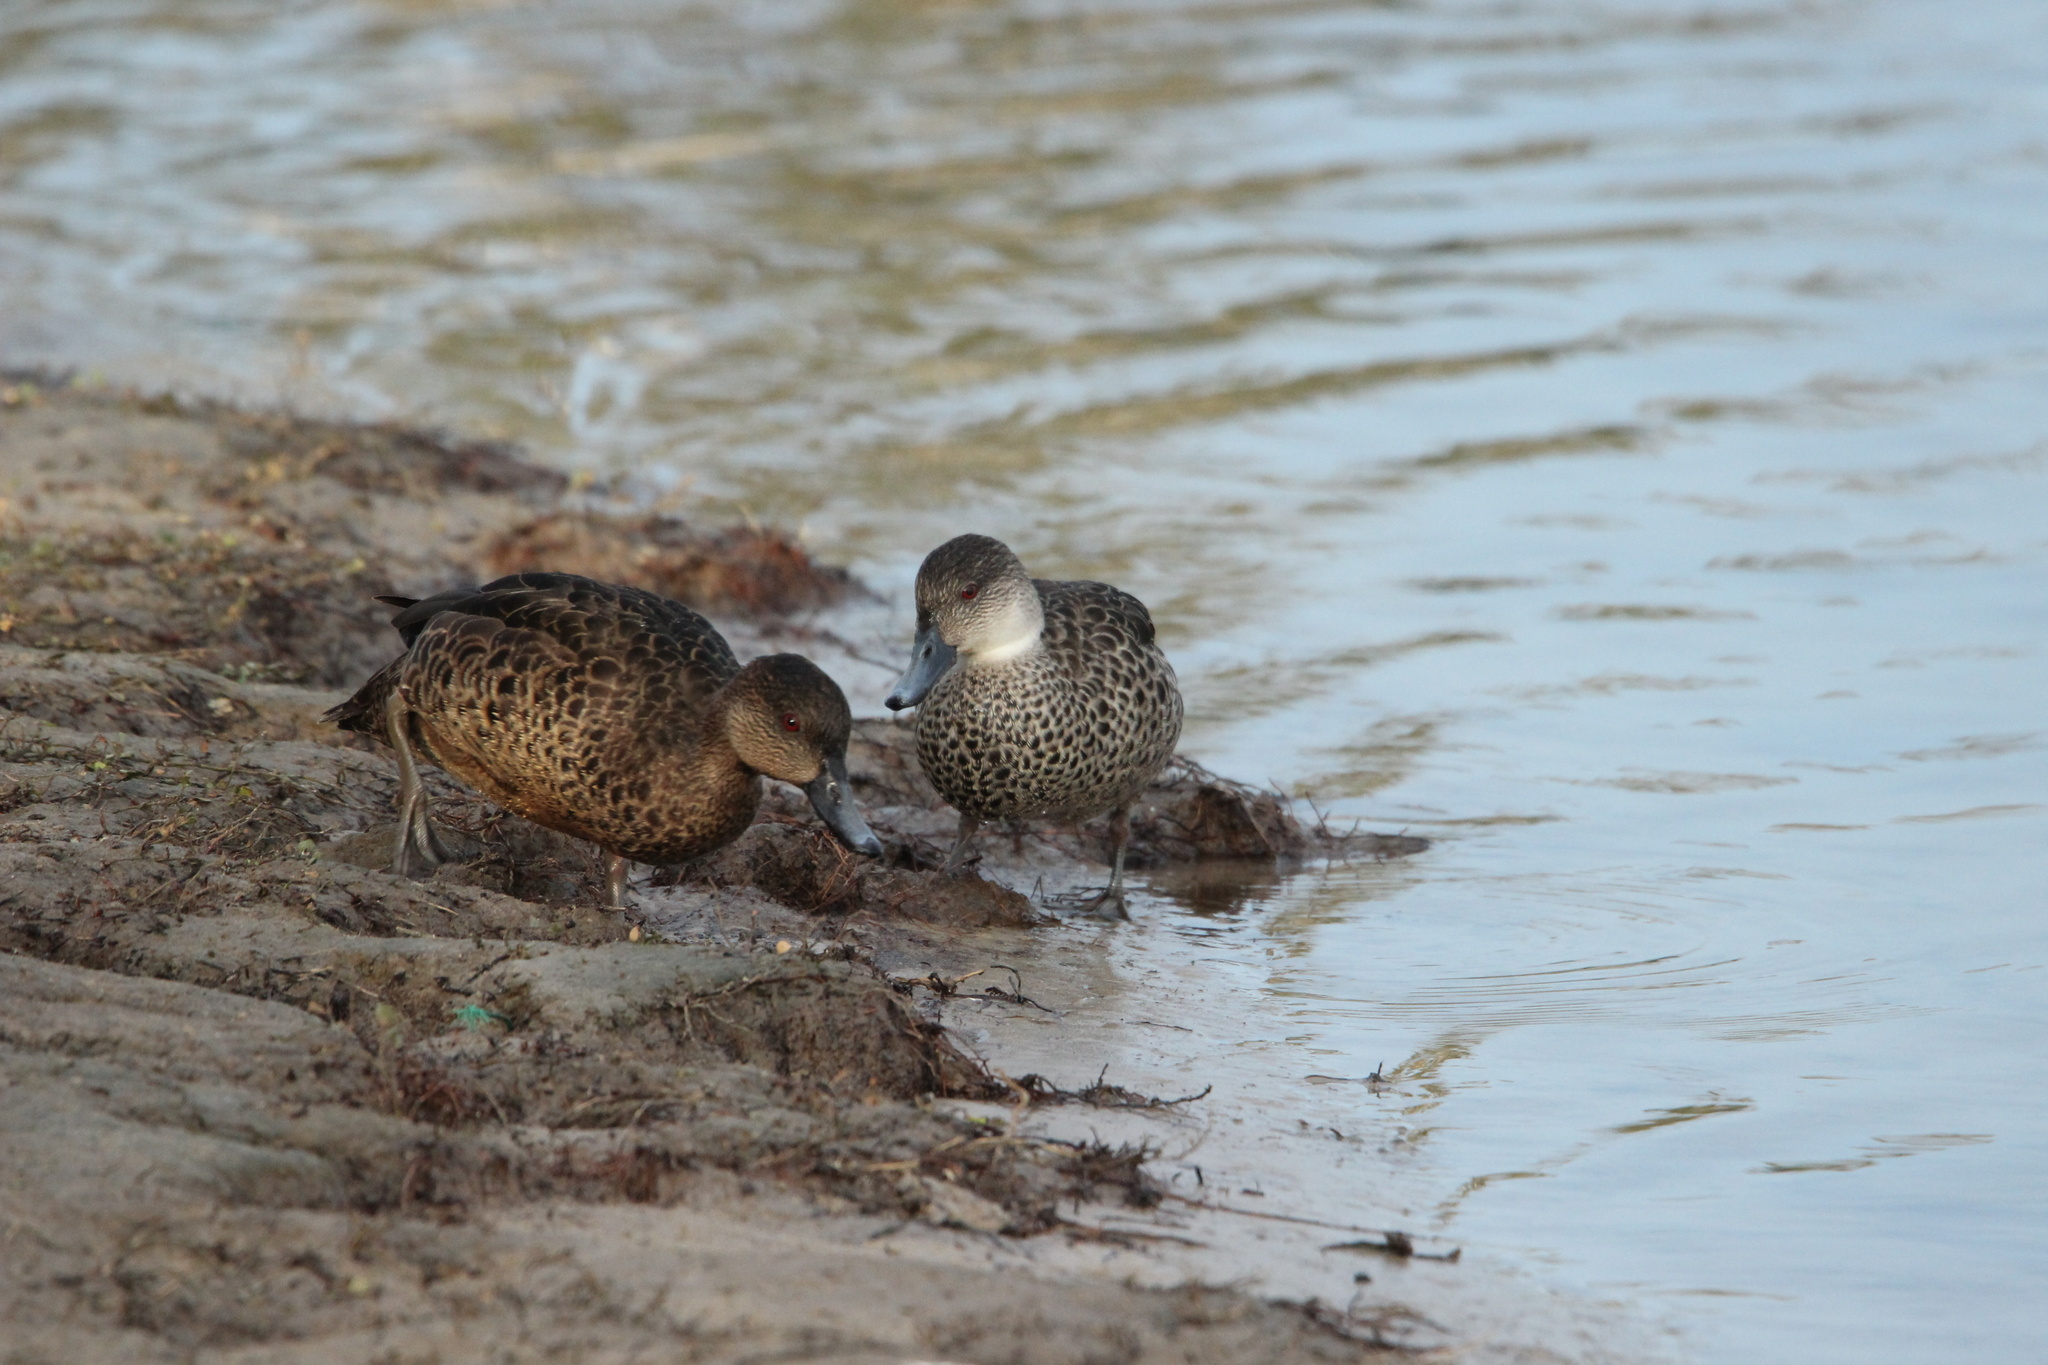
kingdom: Animalia
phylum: Chordata
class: Aves
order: Anseriformes
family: Anatidae
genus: Anas
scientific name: Anas gracilis
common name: Grey teal
